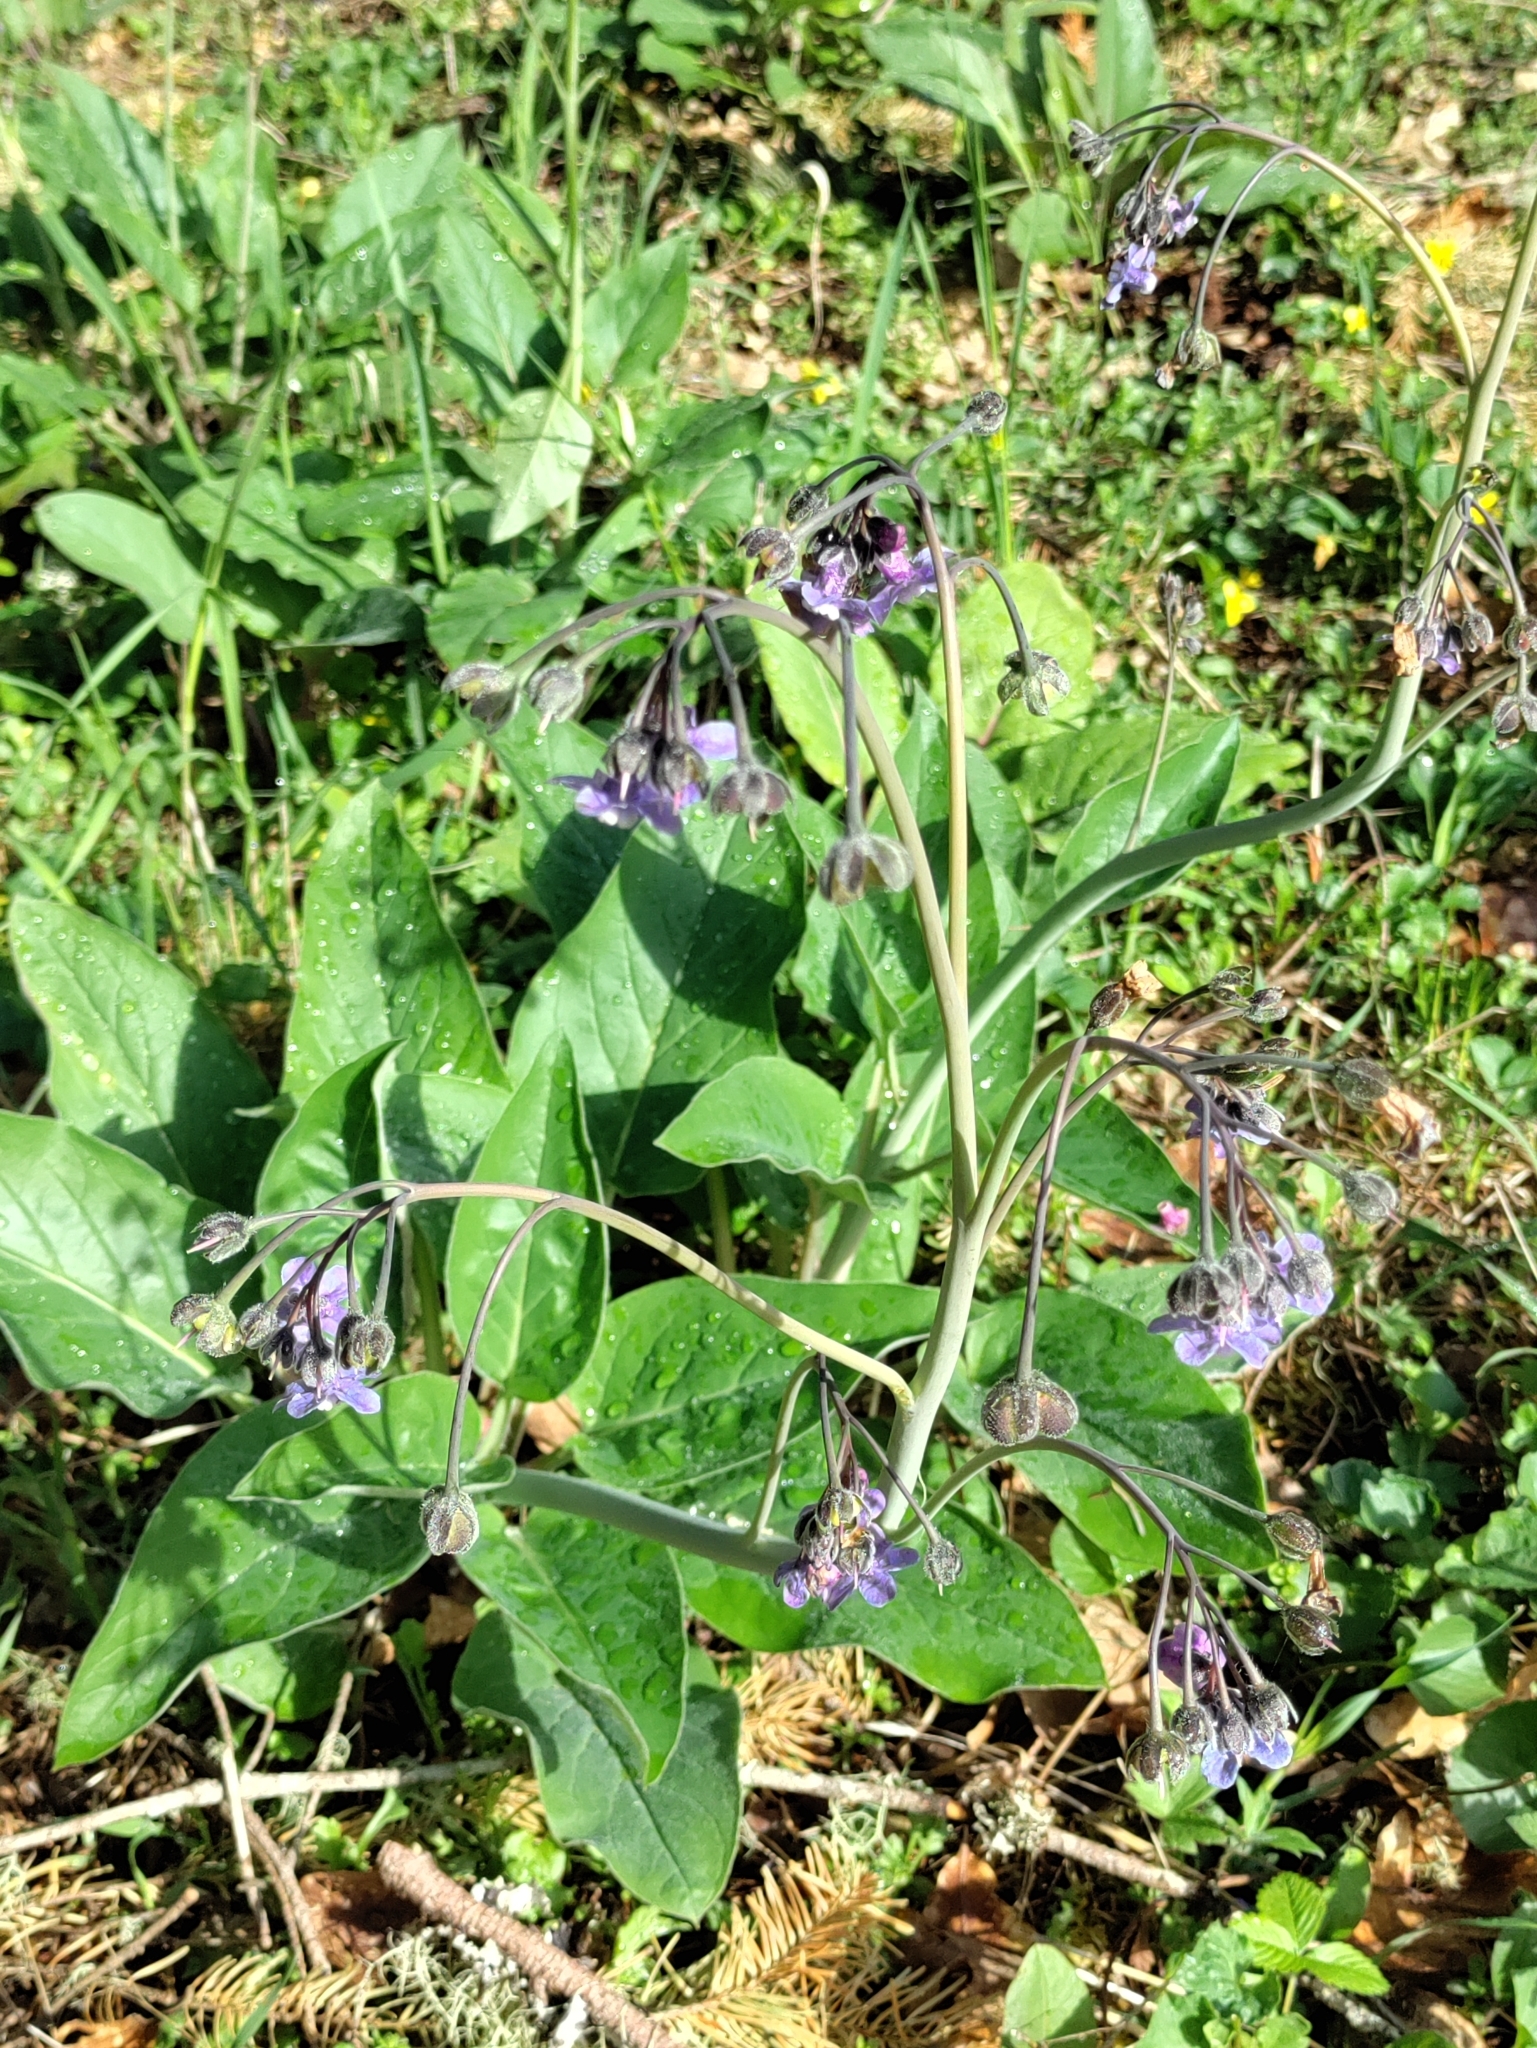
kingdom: Plantae
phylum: Tracheophyta
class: Magnoliopsida
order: Boraginales
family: Boraginaceae
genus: Adelinia
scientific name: Adelinia grande
